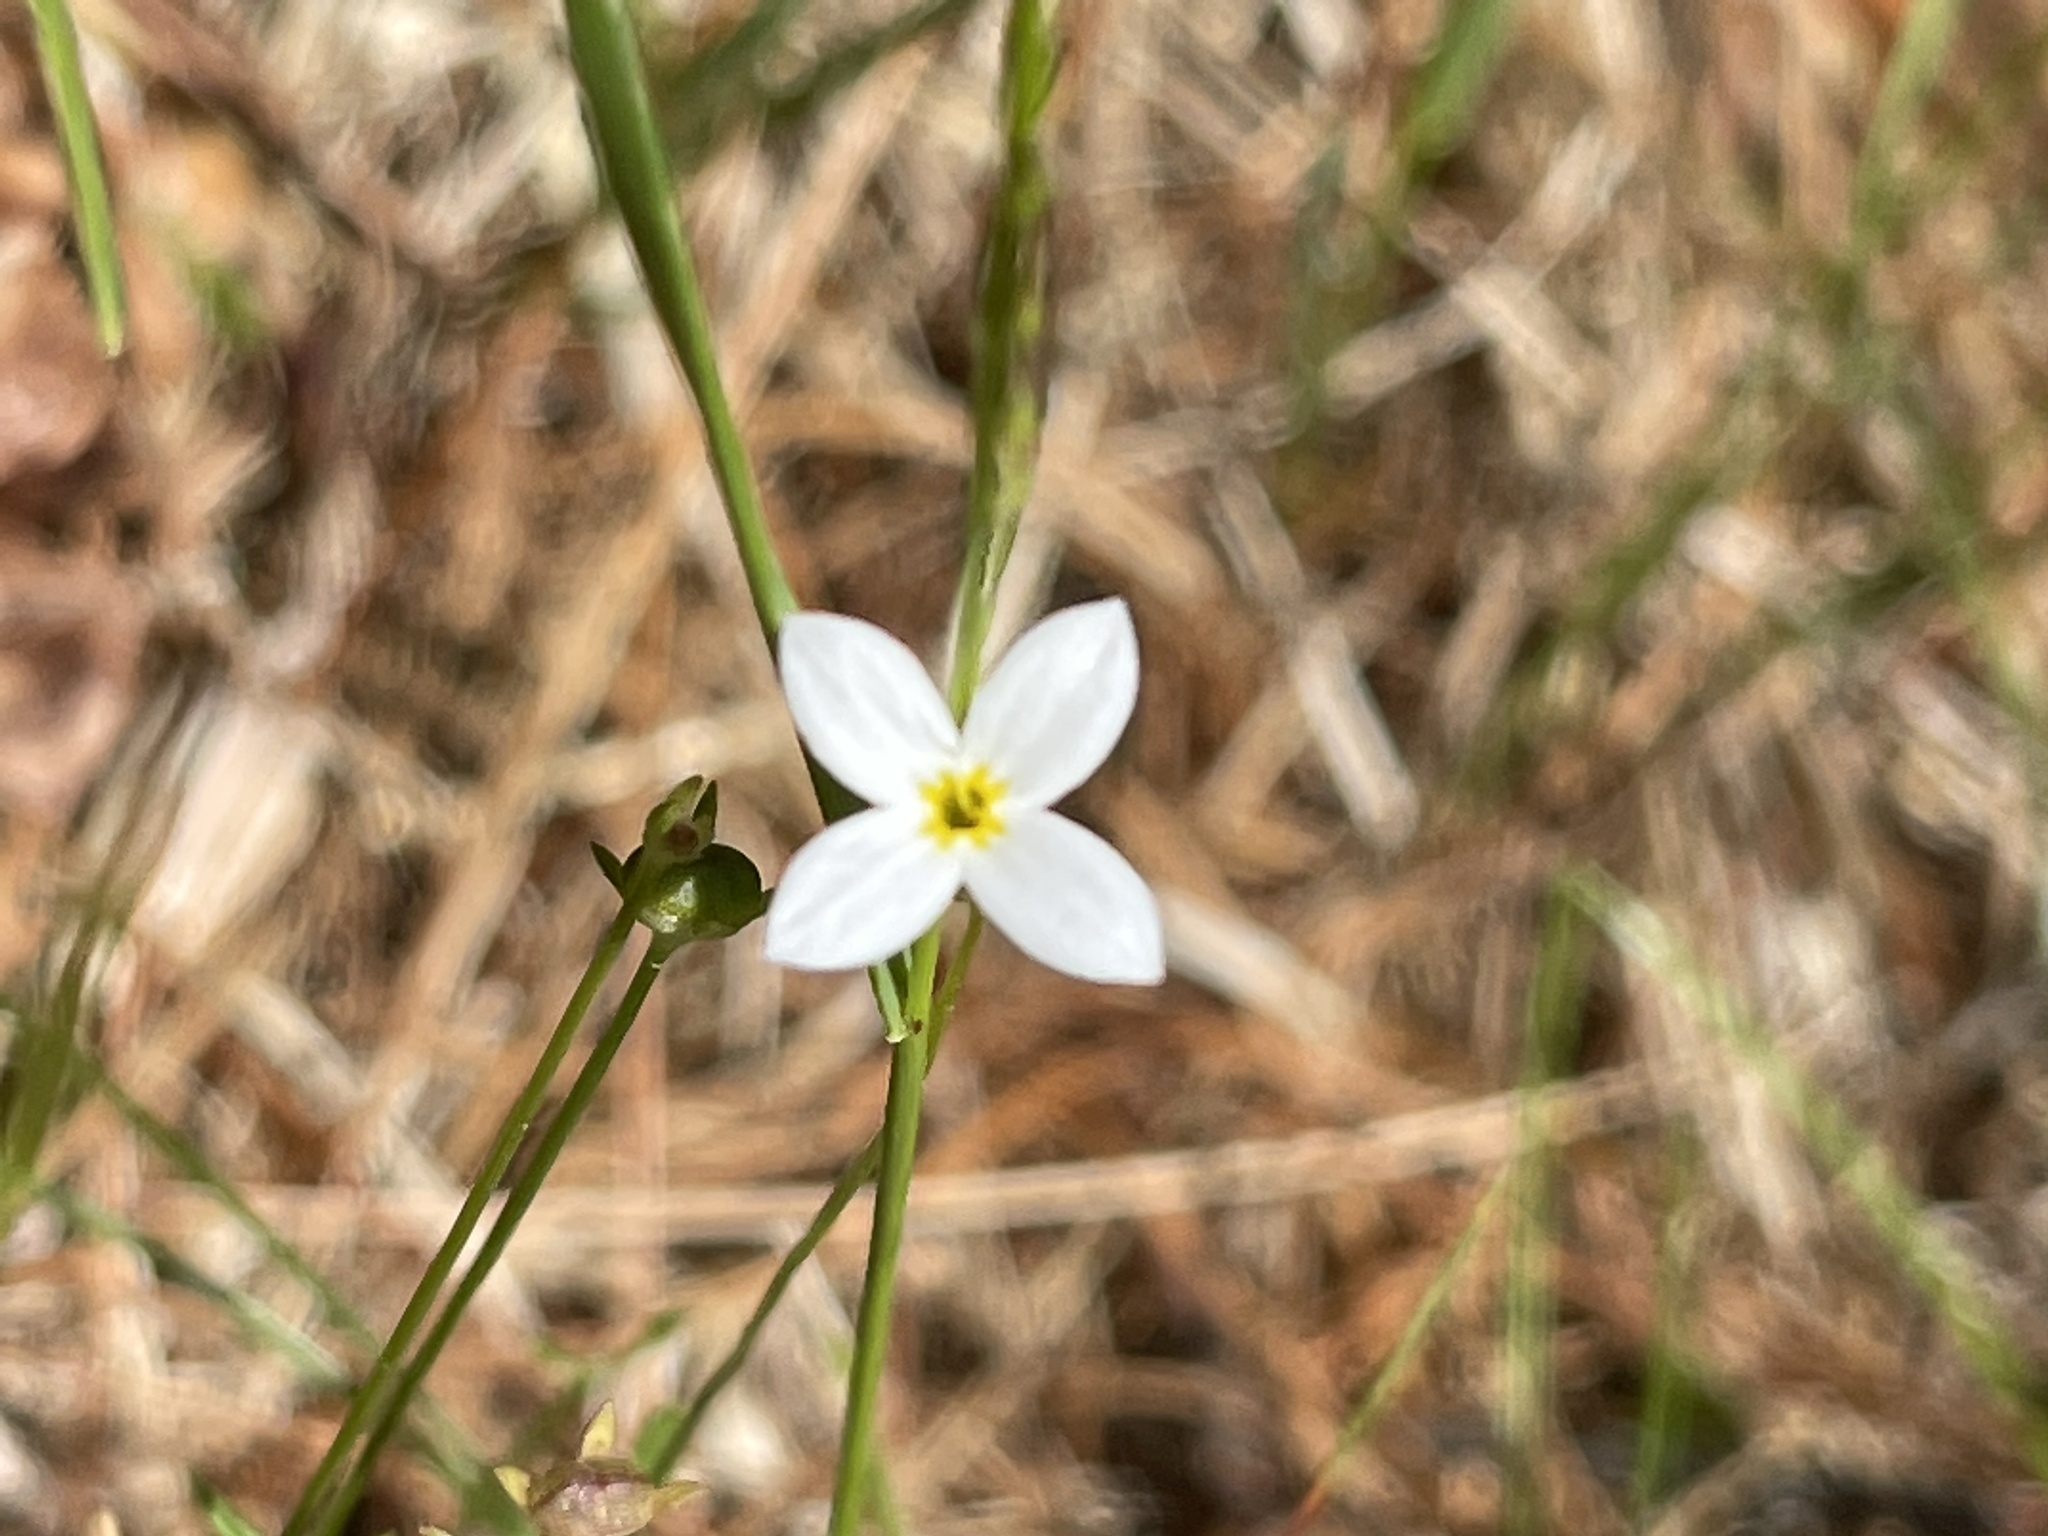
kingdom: Plantae
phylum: Tracheophyta
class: Magnoliopsida
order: Gentianales
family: Rubiaceae
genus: Houstonia
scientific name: Houstonia caerulea
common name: Bluets
